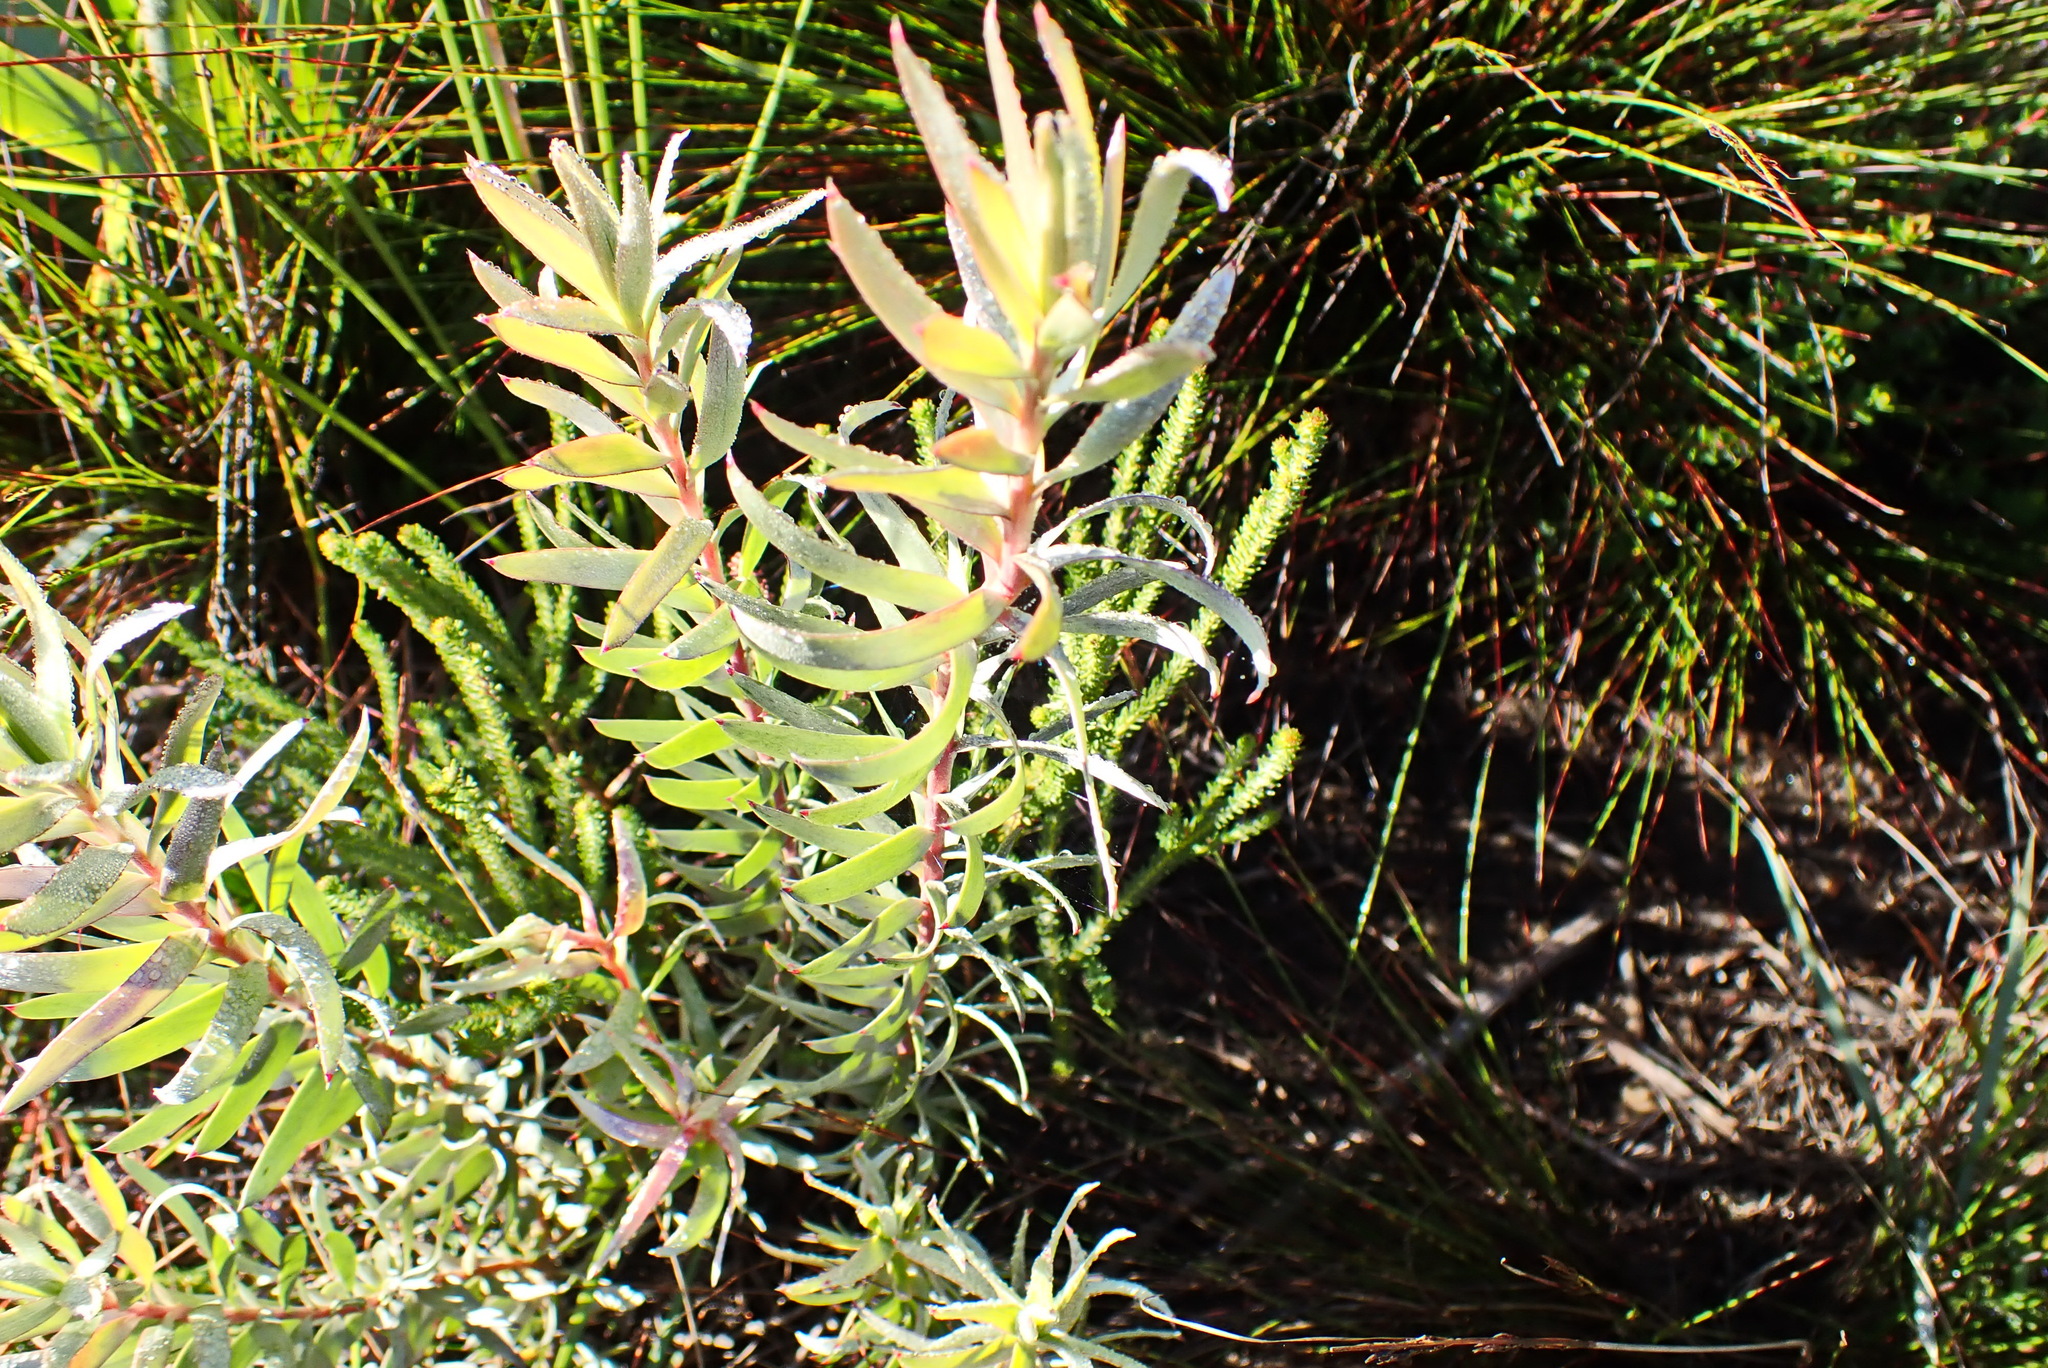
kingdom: Plantae
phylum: Tracheophyta
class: Magnoliopsida
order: Proteales
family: Proteaceae
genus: Leucadendron
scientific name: Leucadendron uliginosum
